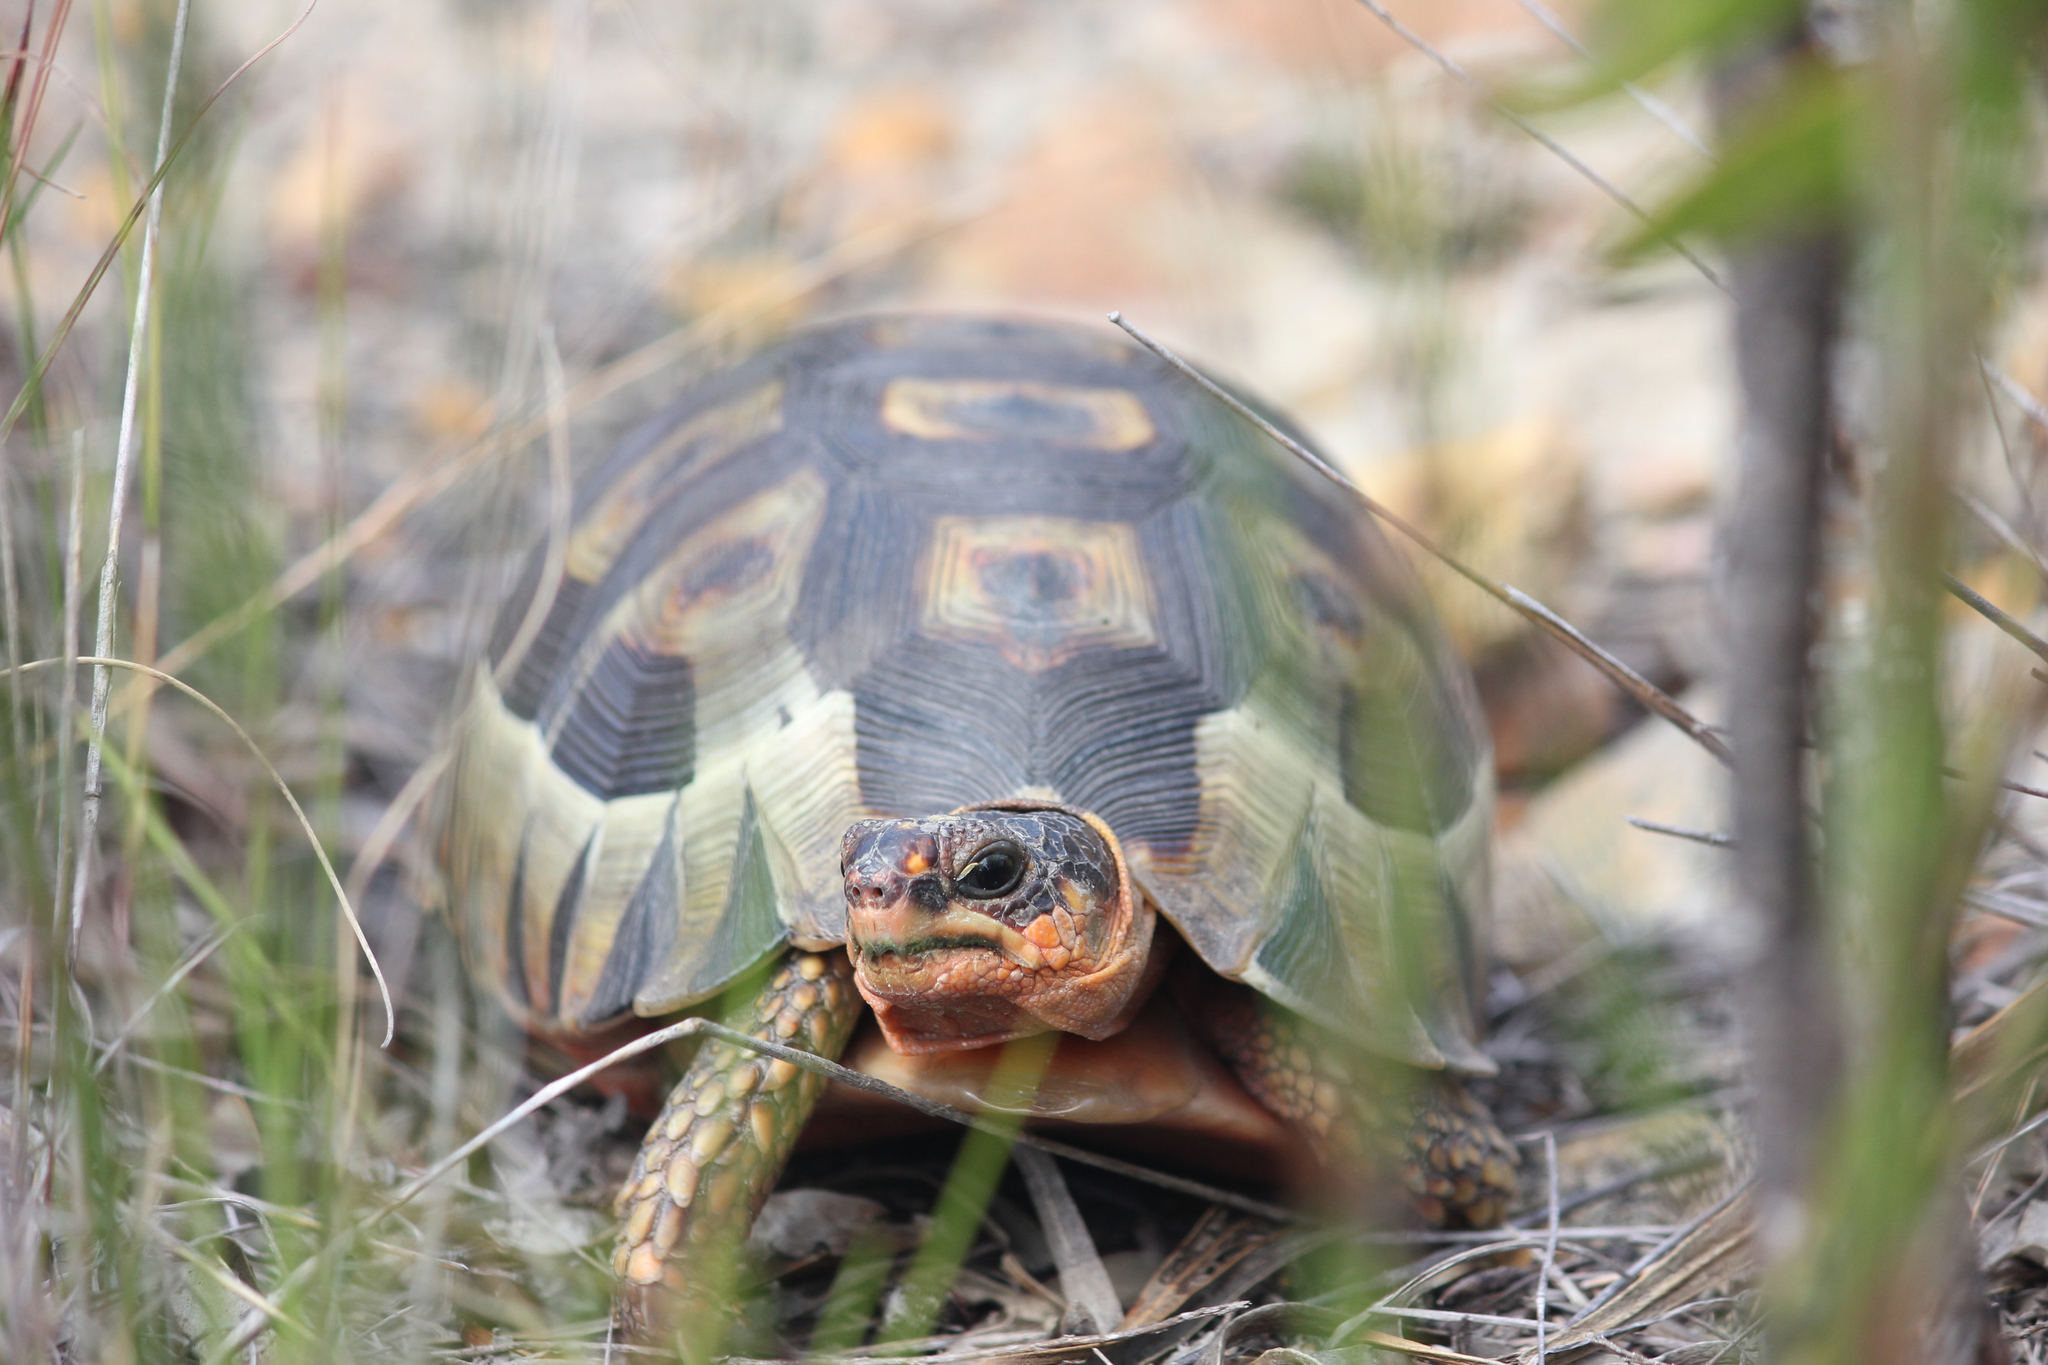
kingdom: Animalia
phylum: Chordata
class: Testudines
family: Testudinidae
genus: Chersina
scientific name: Chersina angulata
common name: South african bowsprit tortoise
